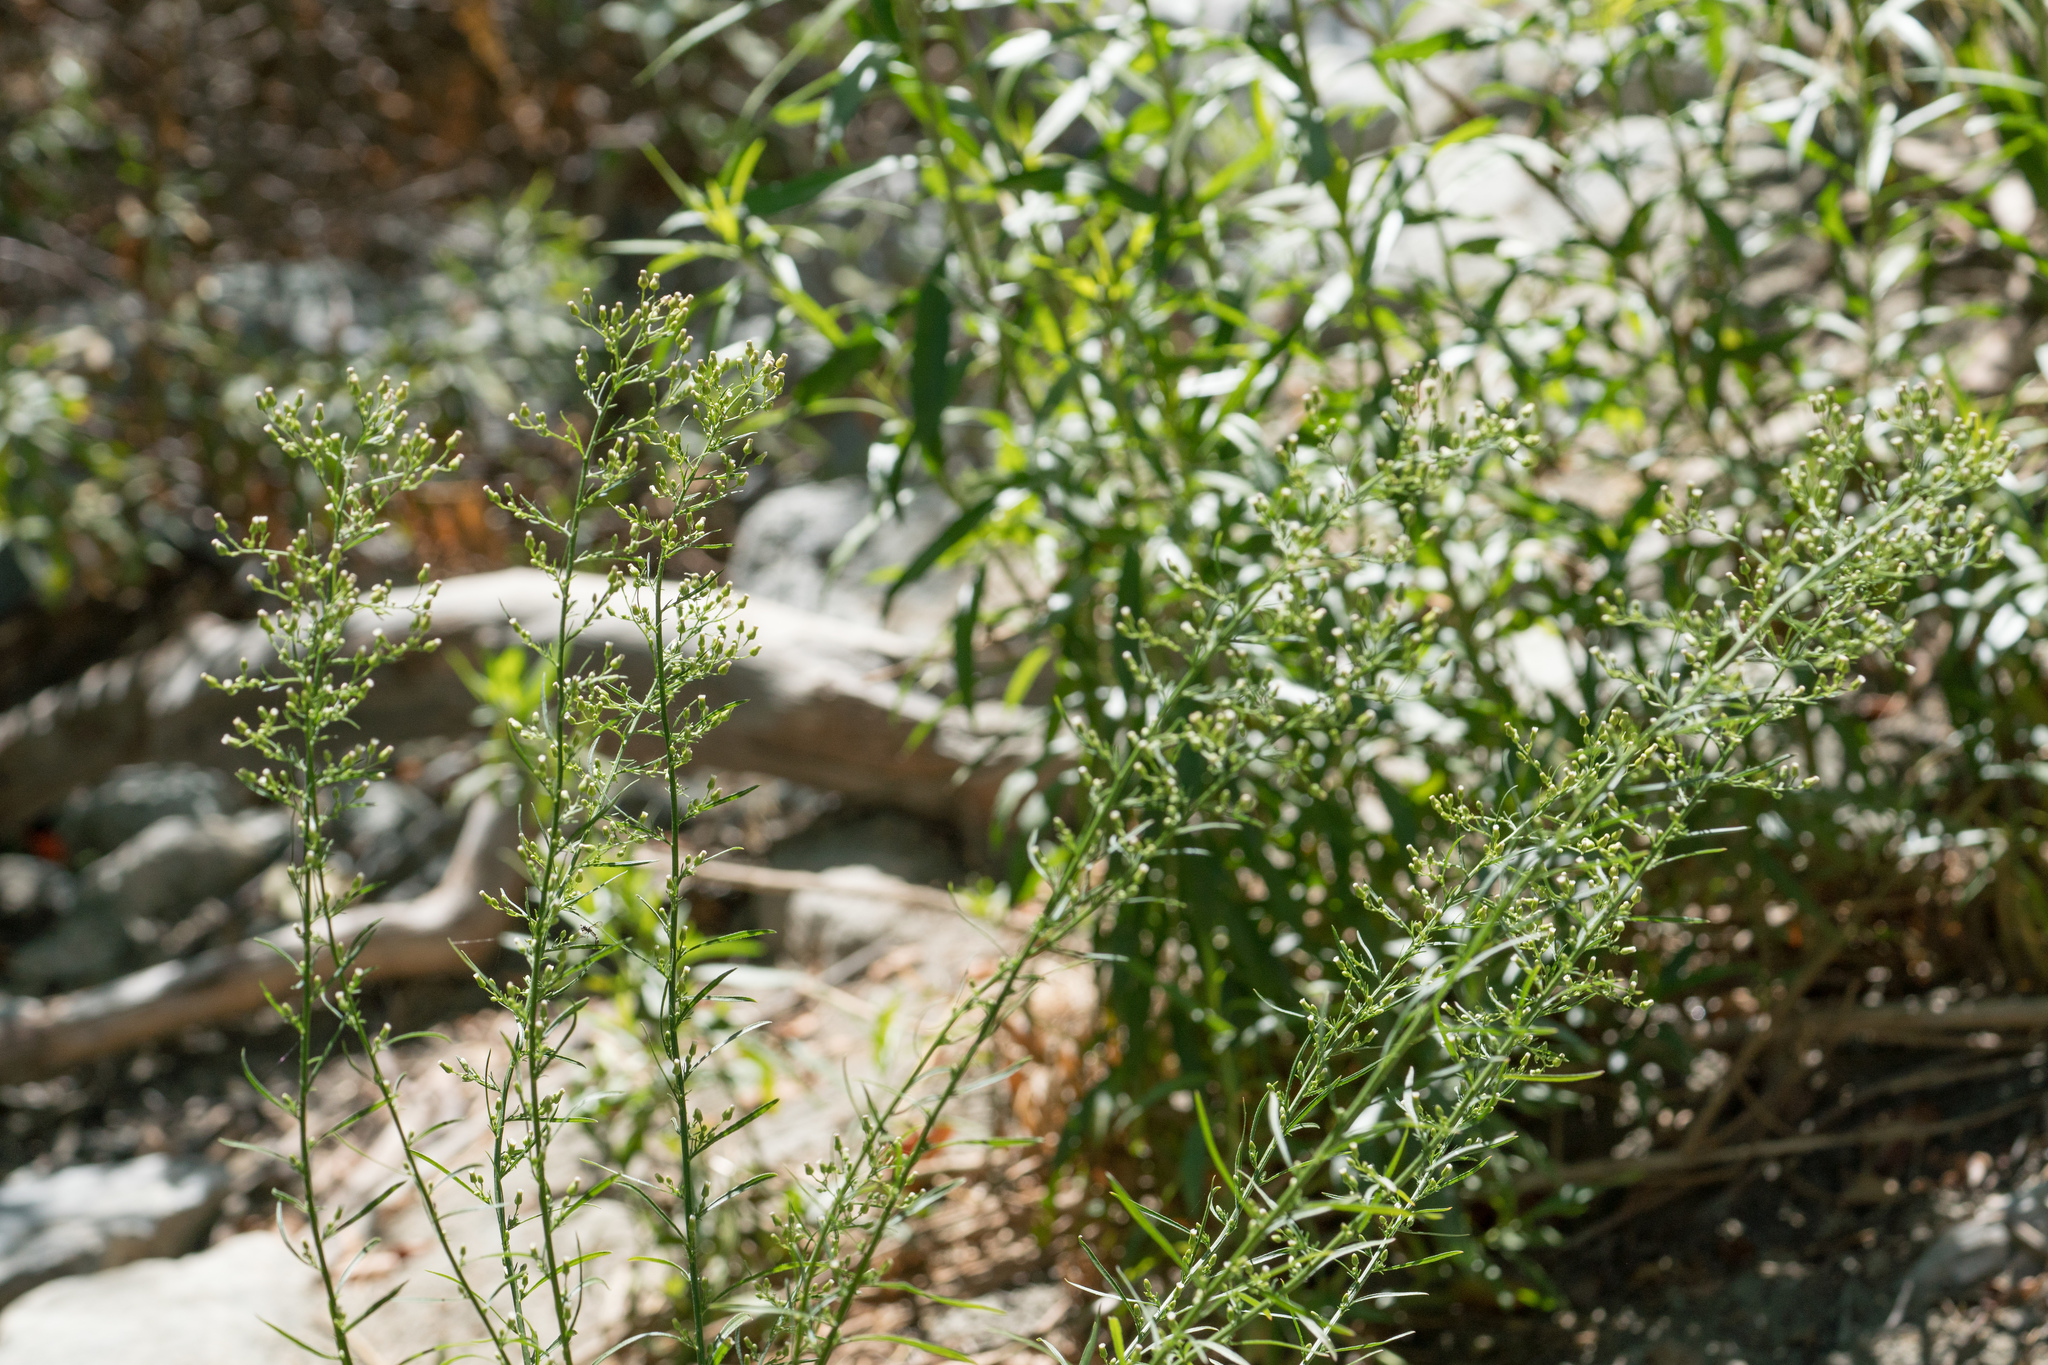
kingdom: Plantae
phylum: Tracheophyta
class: Magnoliopsida
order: Asterales
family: Asteraceae
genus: Erigeron
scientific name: Erigeron canadensis
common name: Canadian fleabane
